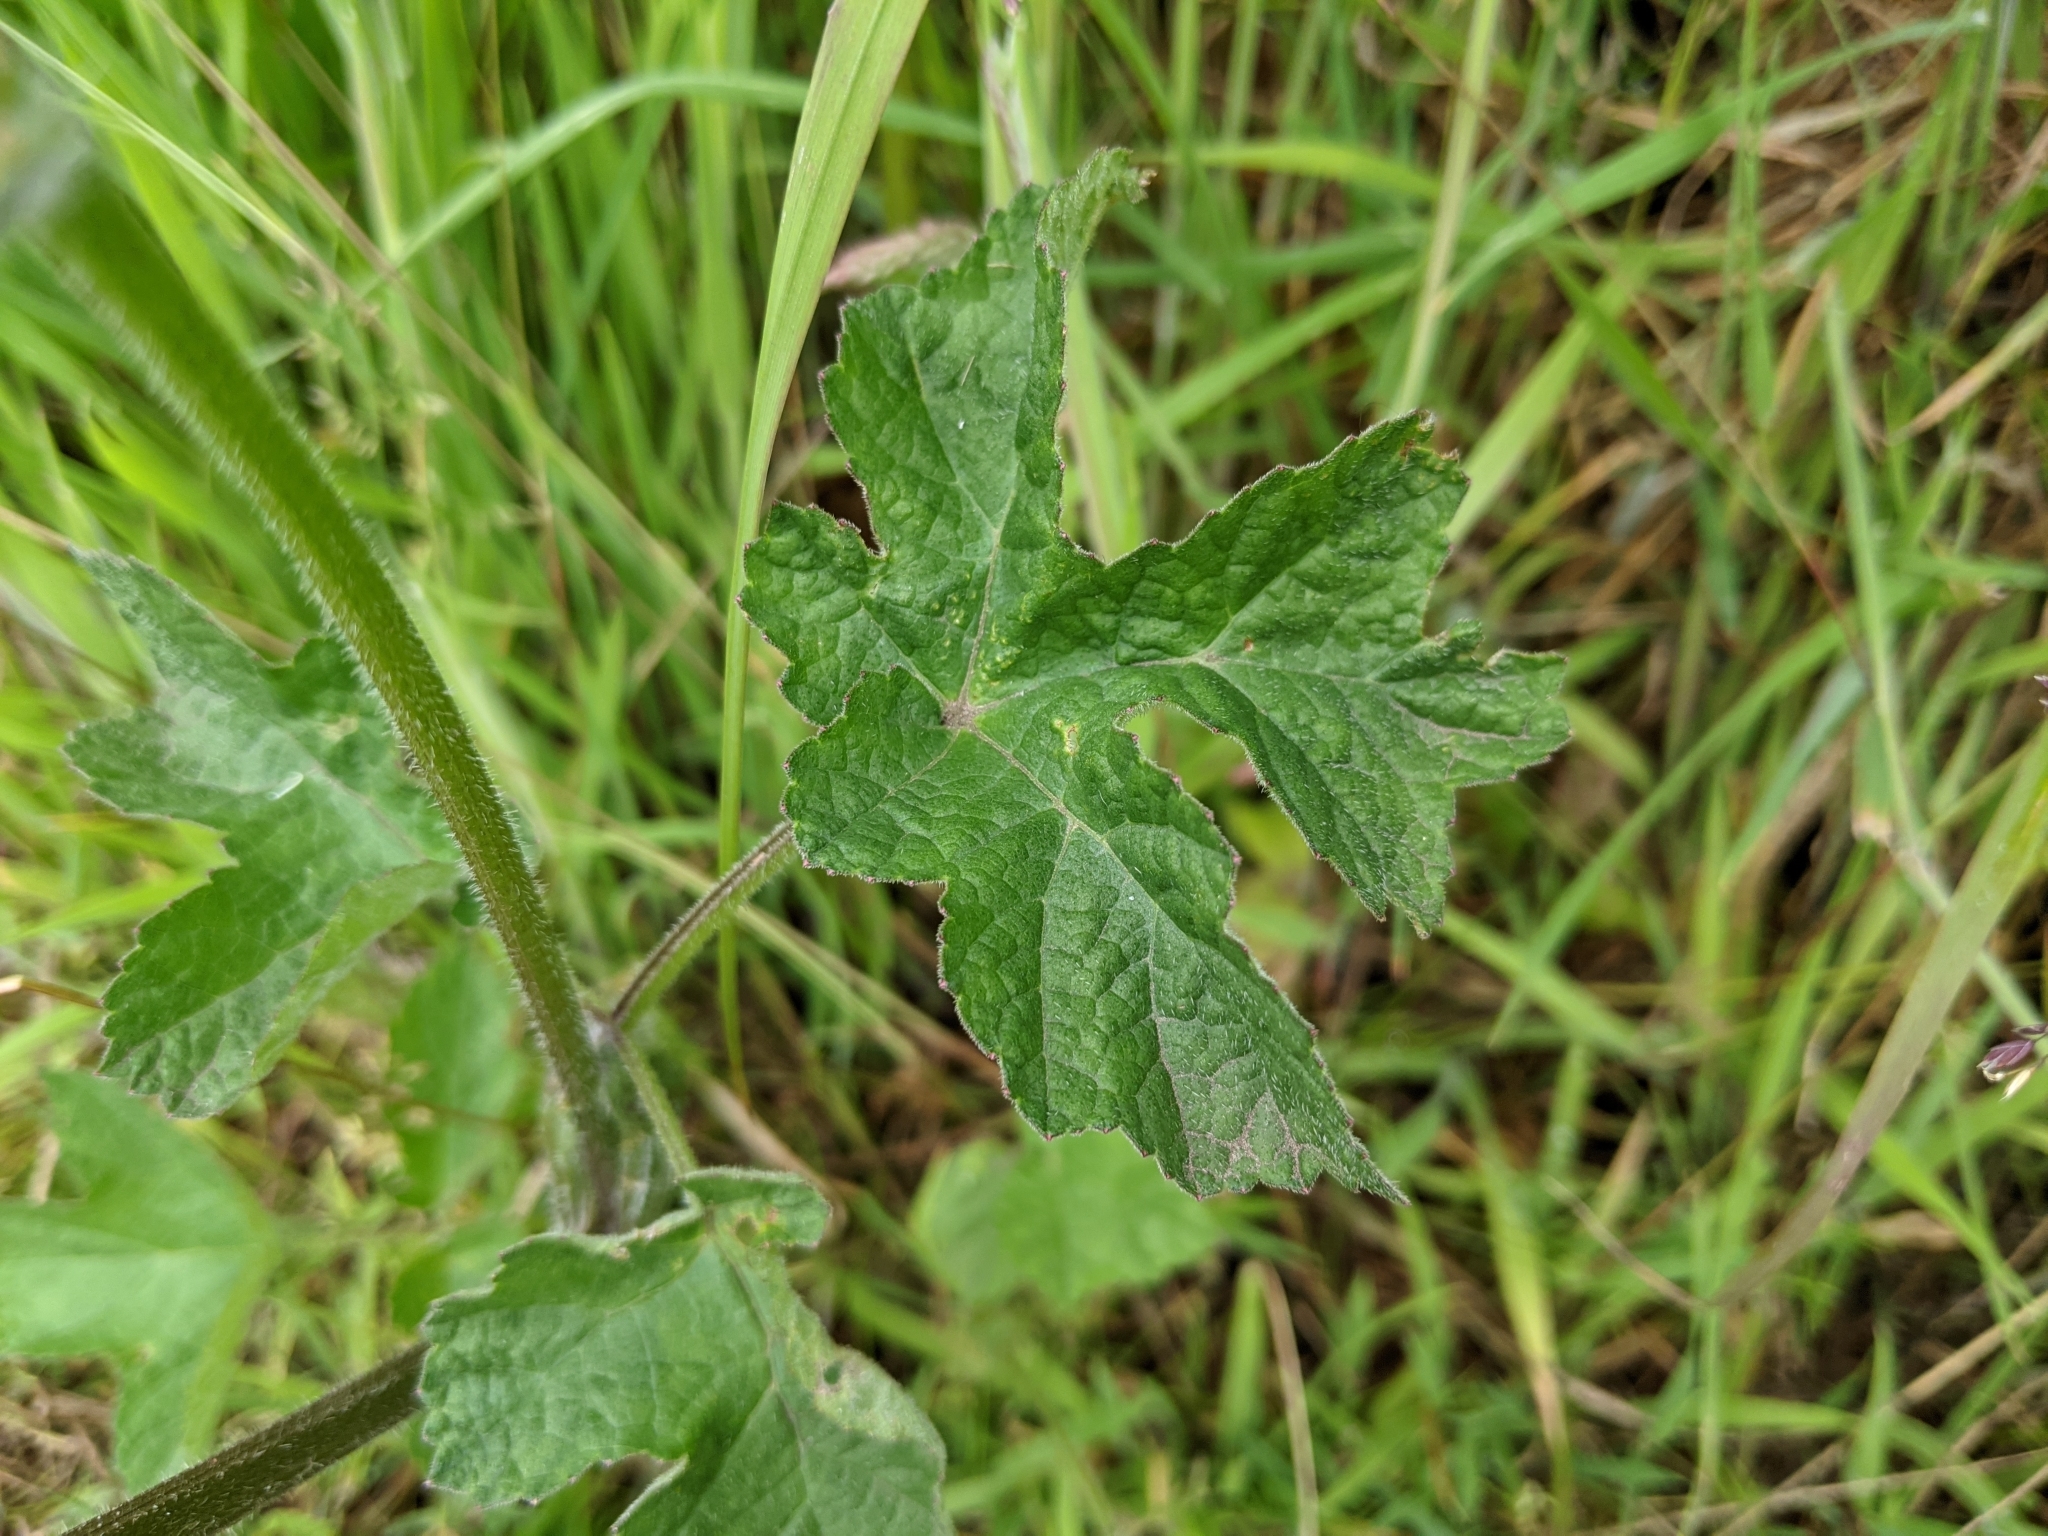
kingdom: Plantae
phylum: Tracheophyta
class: Magnoliopsida
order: Apiales
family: Apiaceae
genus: Heracleum
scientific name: Heracleum sphondylium
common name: Hogweed
